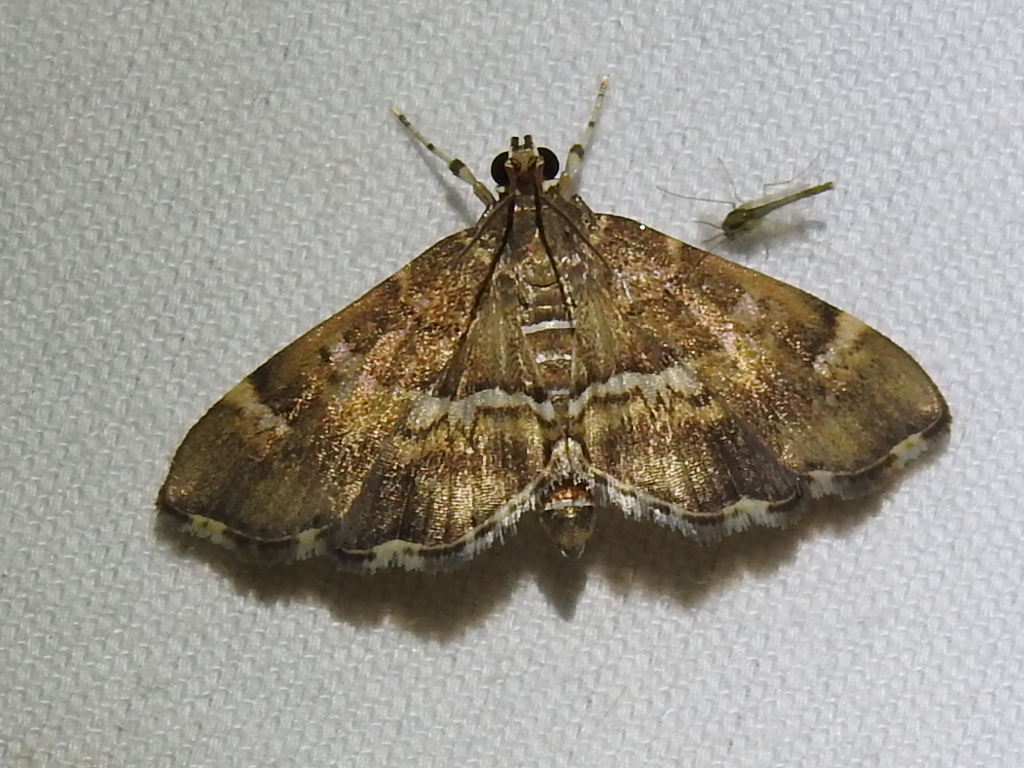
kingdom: Animalia
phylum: Arthropoda
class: Insecta
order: Lepidoptera
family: Crambidae
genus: Hymenia
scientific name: Hymenia perspectalis
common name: Spotted beet webworm
